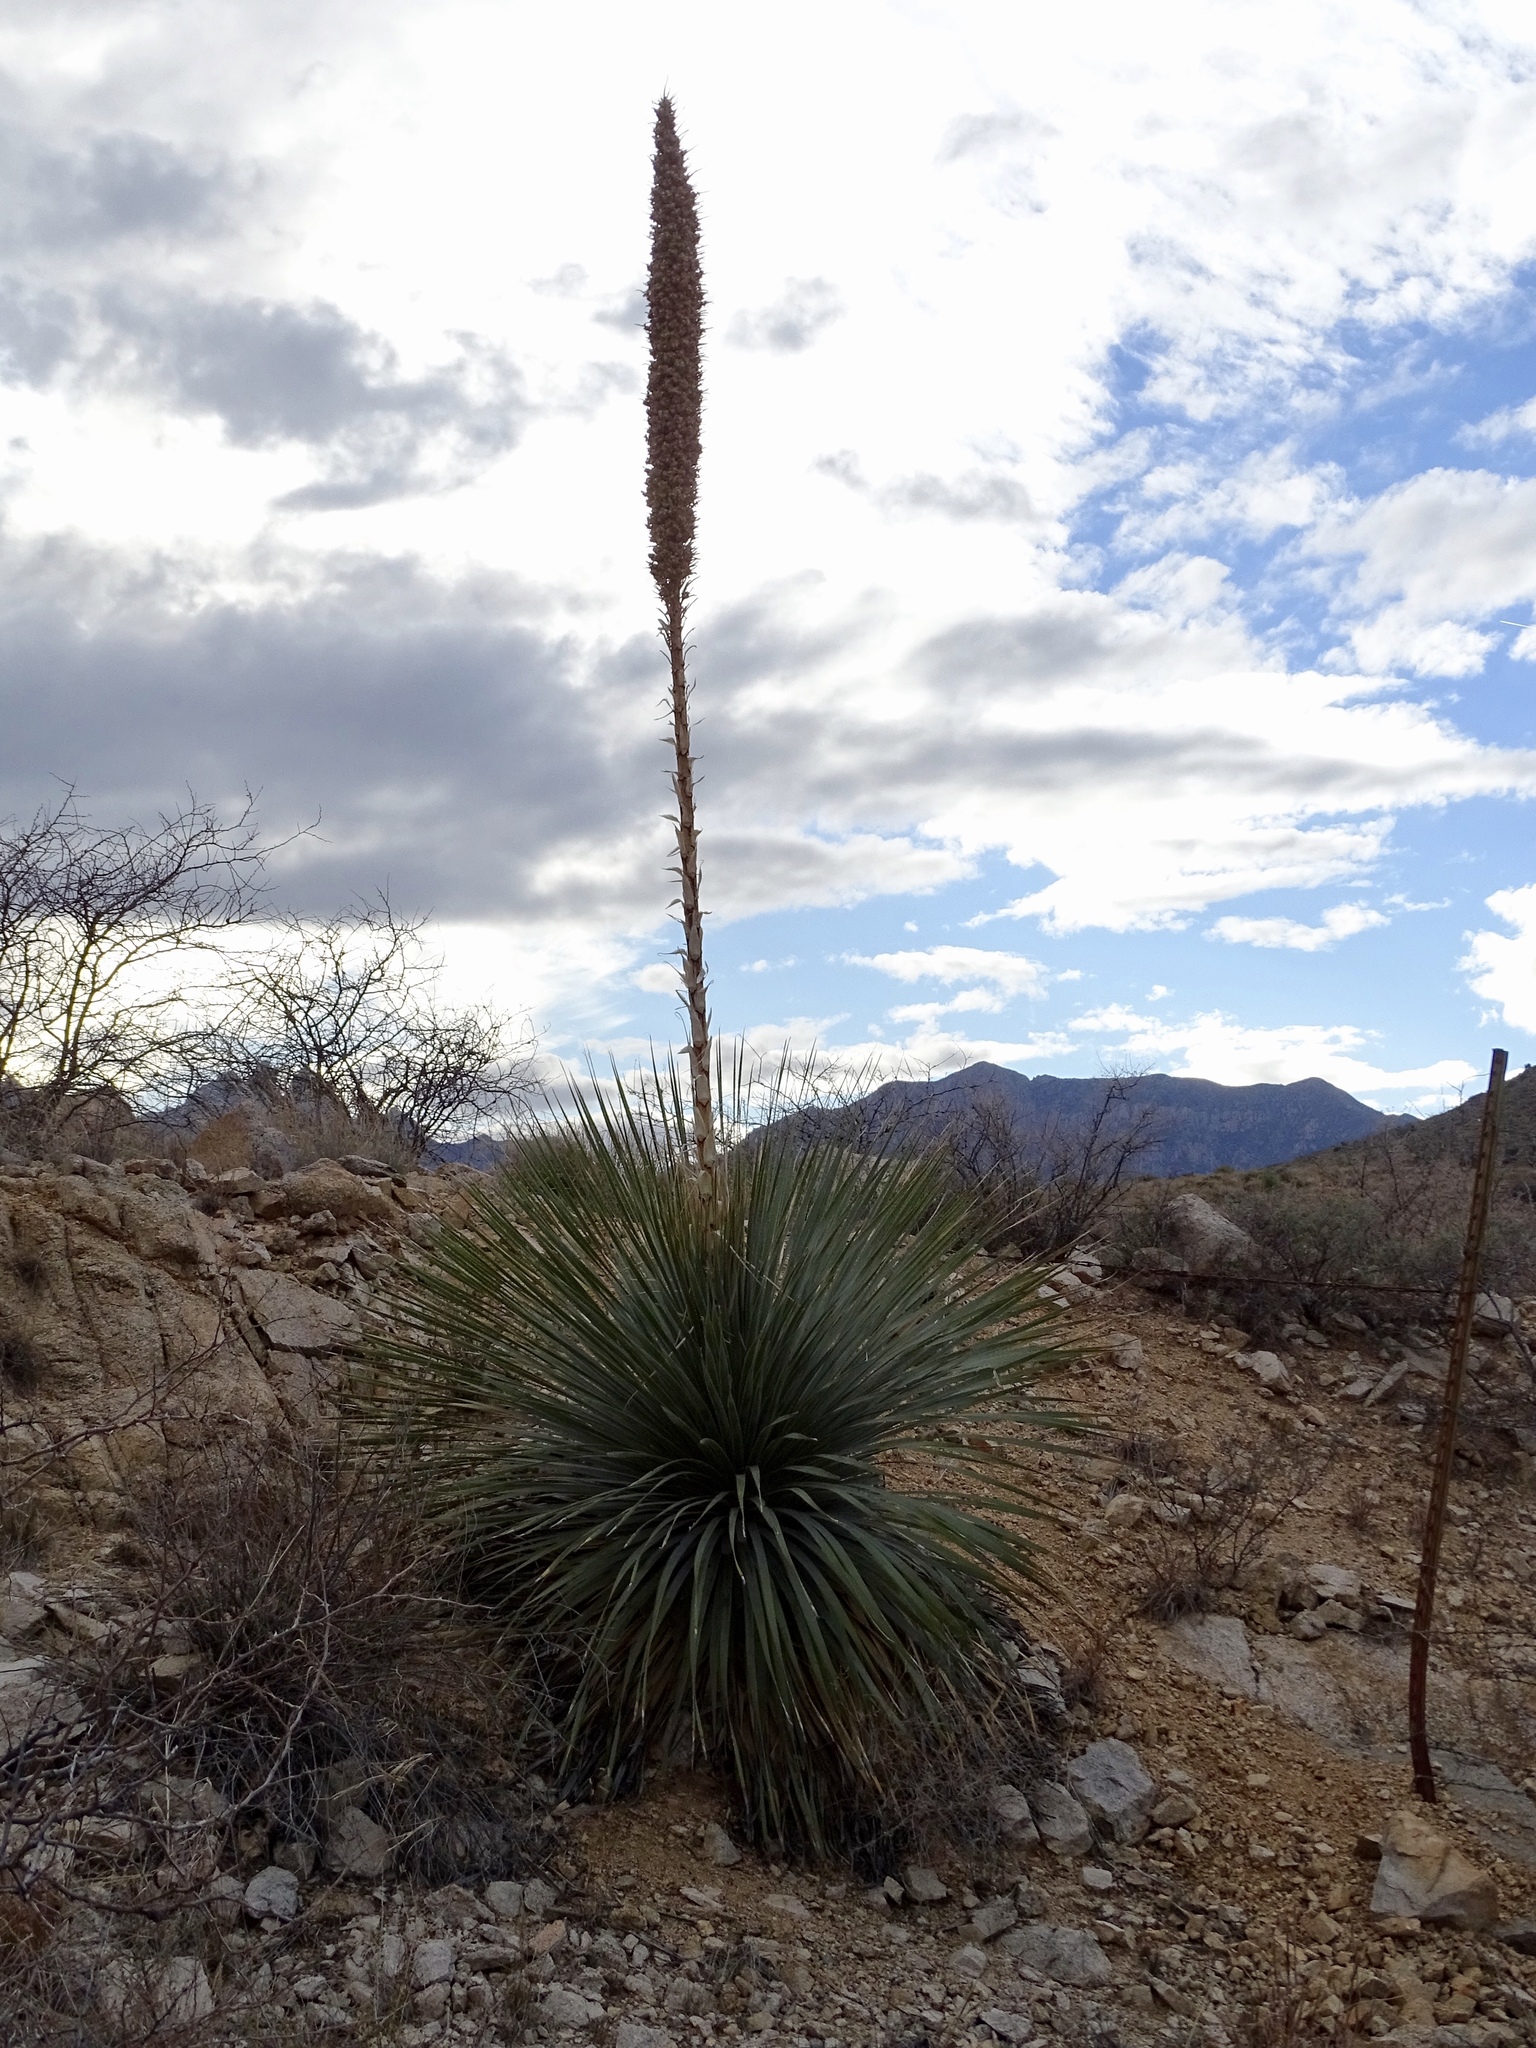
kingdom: Plantae
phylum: Tracheophyta
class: Liliopsida
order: Asparagales
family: Asparagaceae
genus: Dasylirion
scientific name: Dasylirion wheeleri
